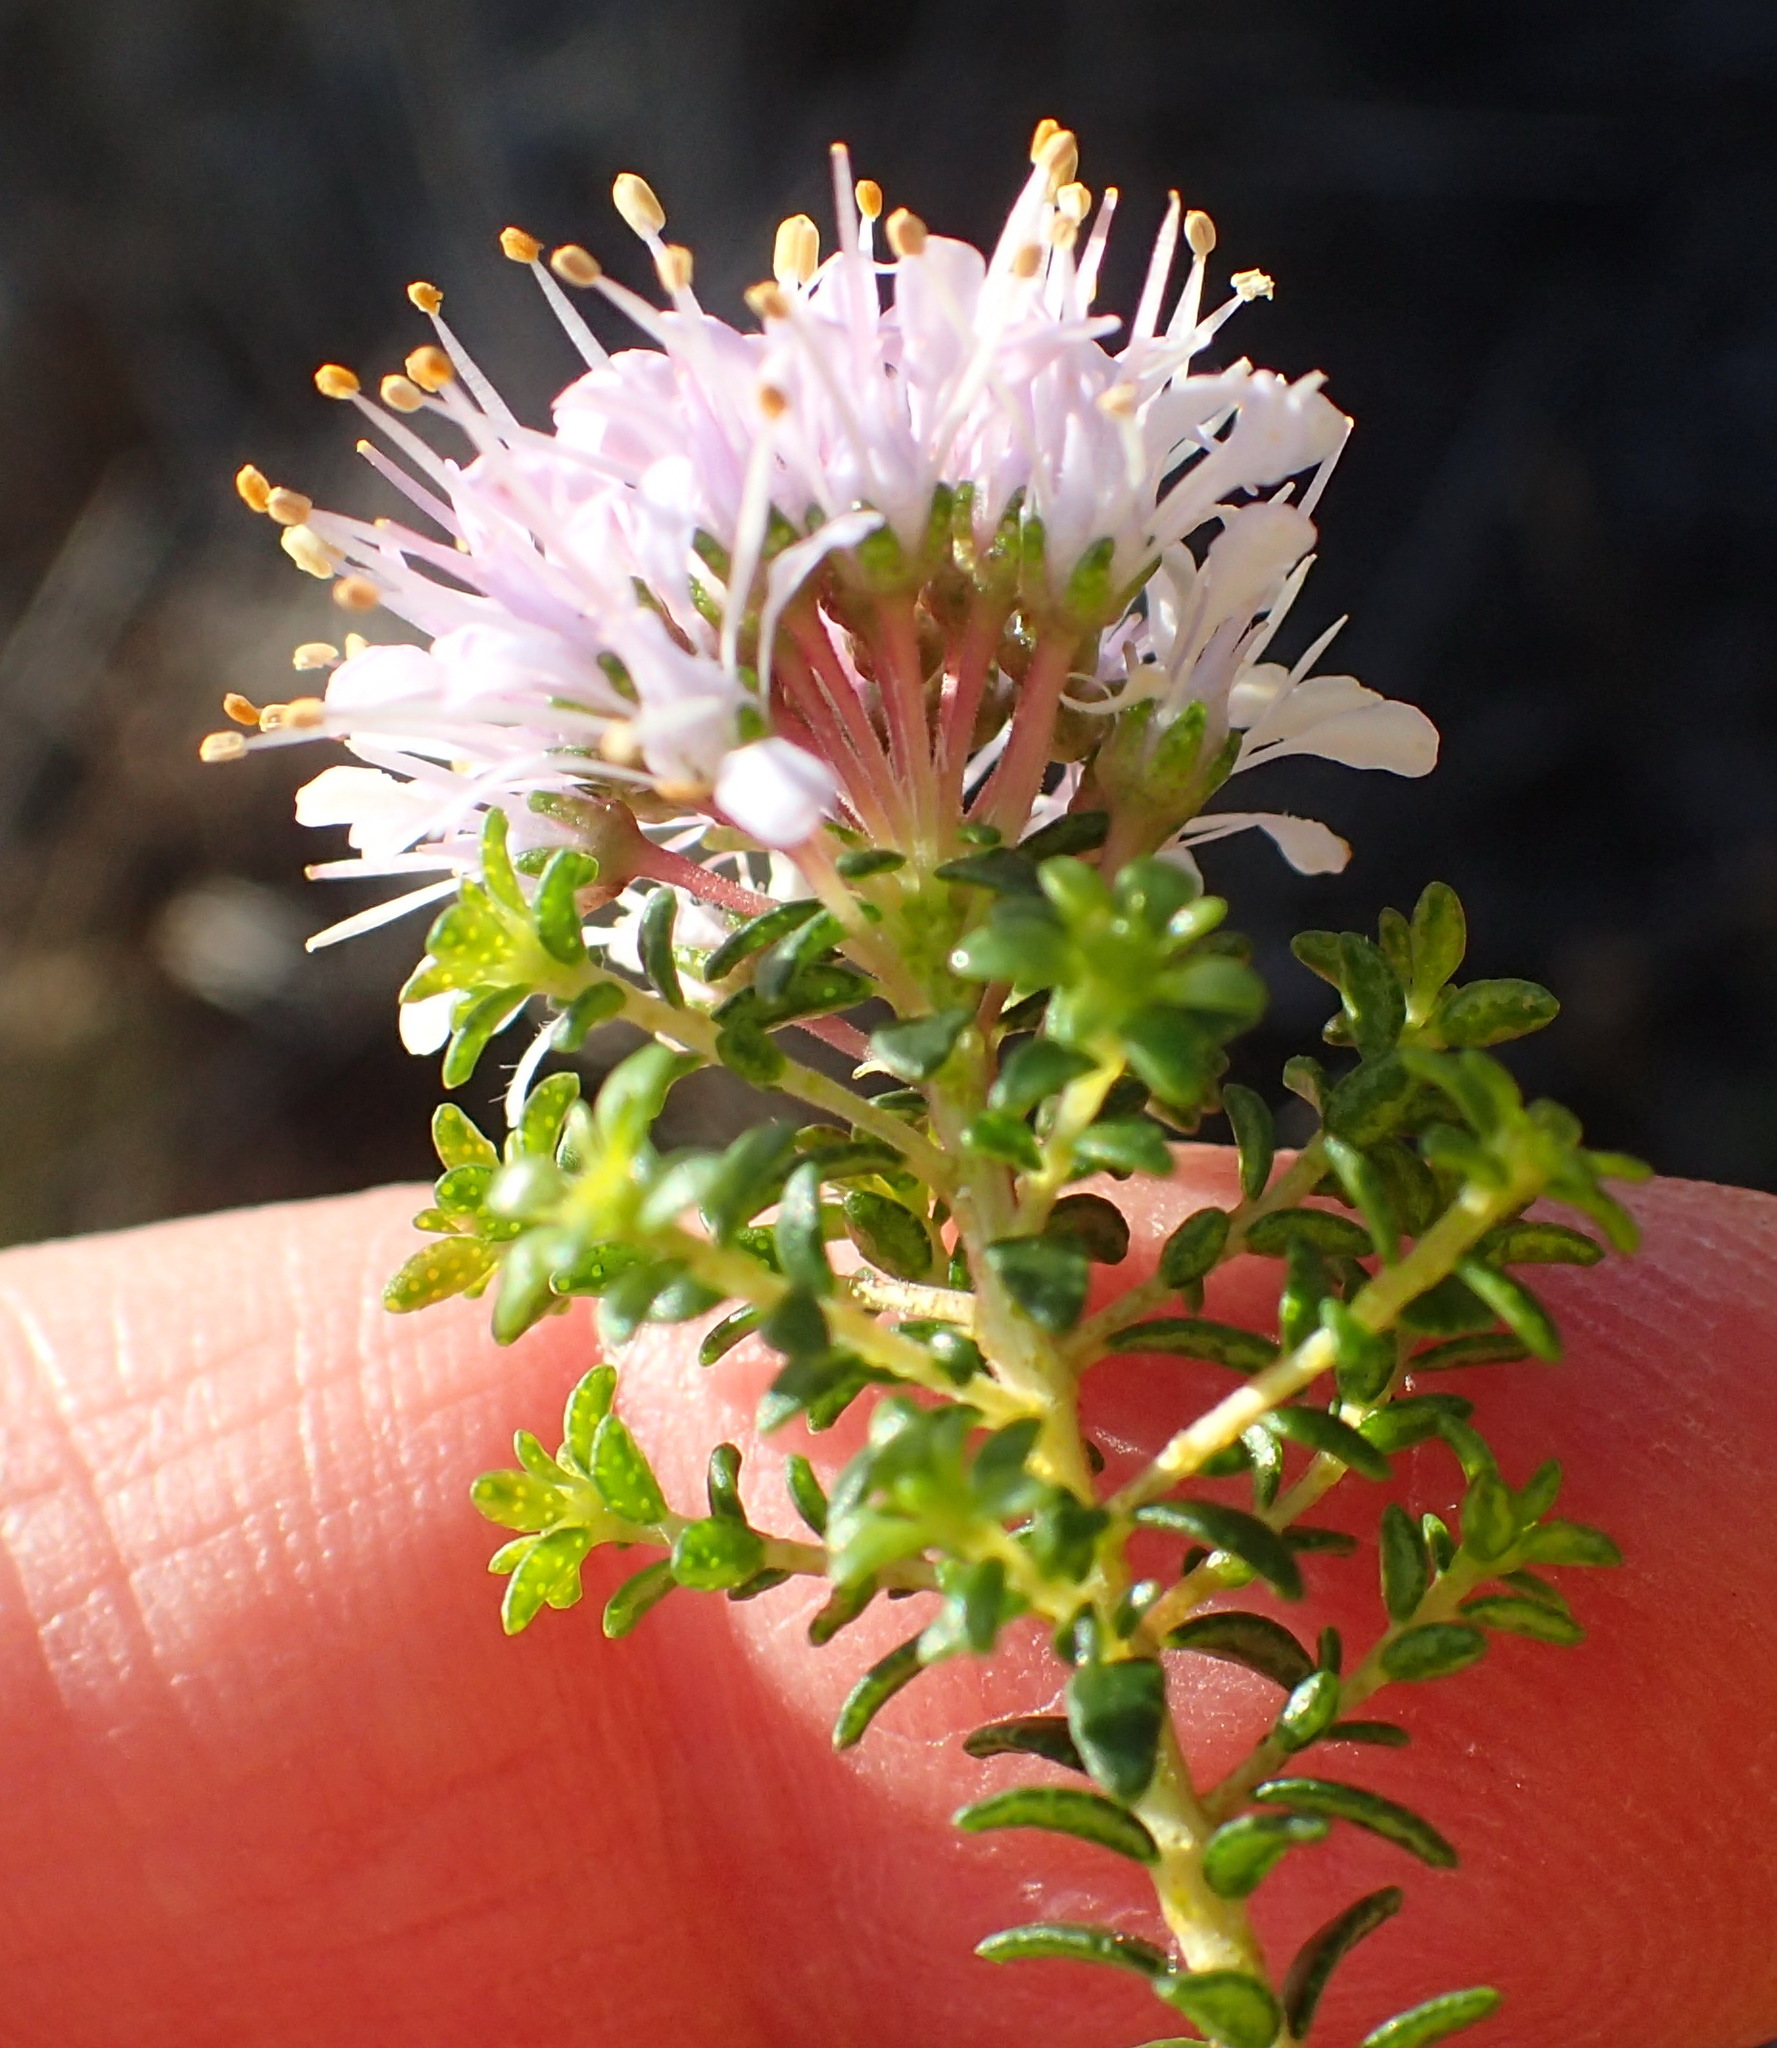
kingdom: Plantae
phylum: Tracheophyta
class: Magnoliopsida
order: Sapindales
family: Rutaceae
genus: Agathosma
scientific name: Agathosma capensis
